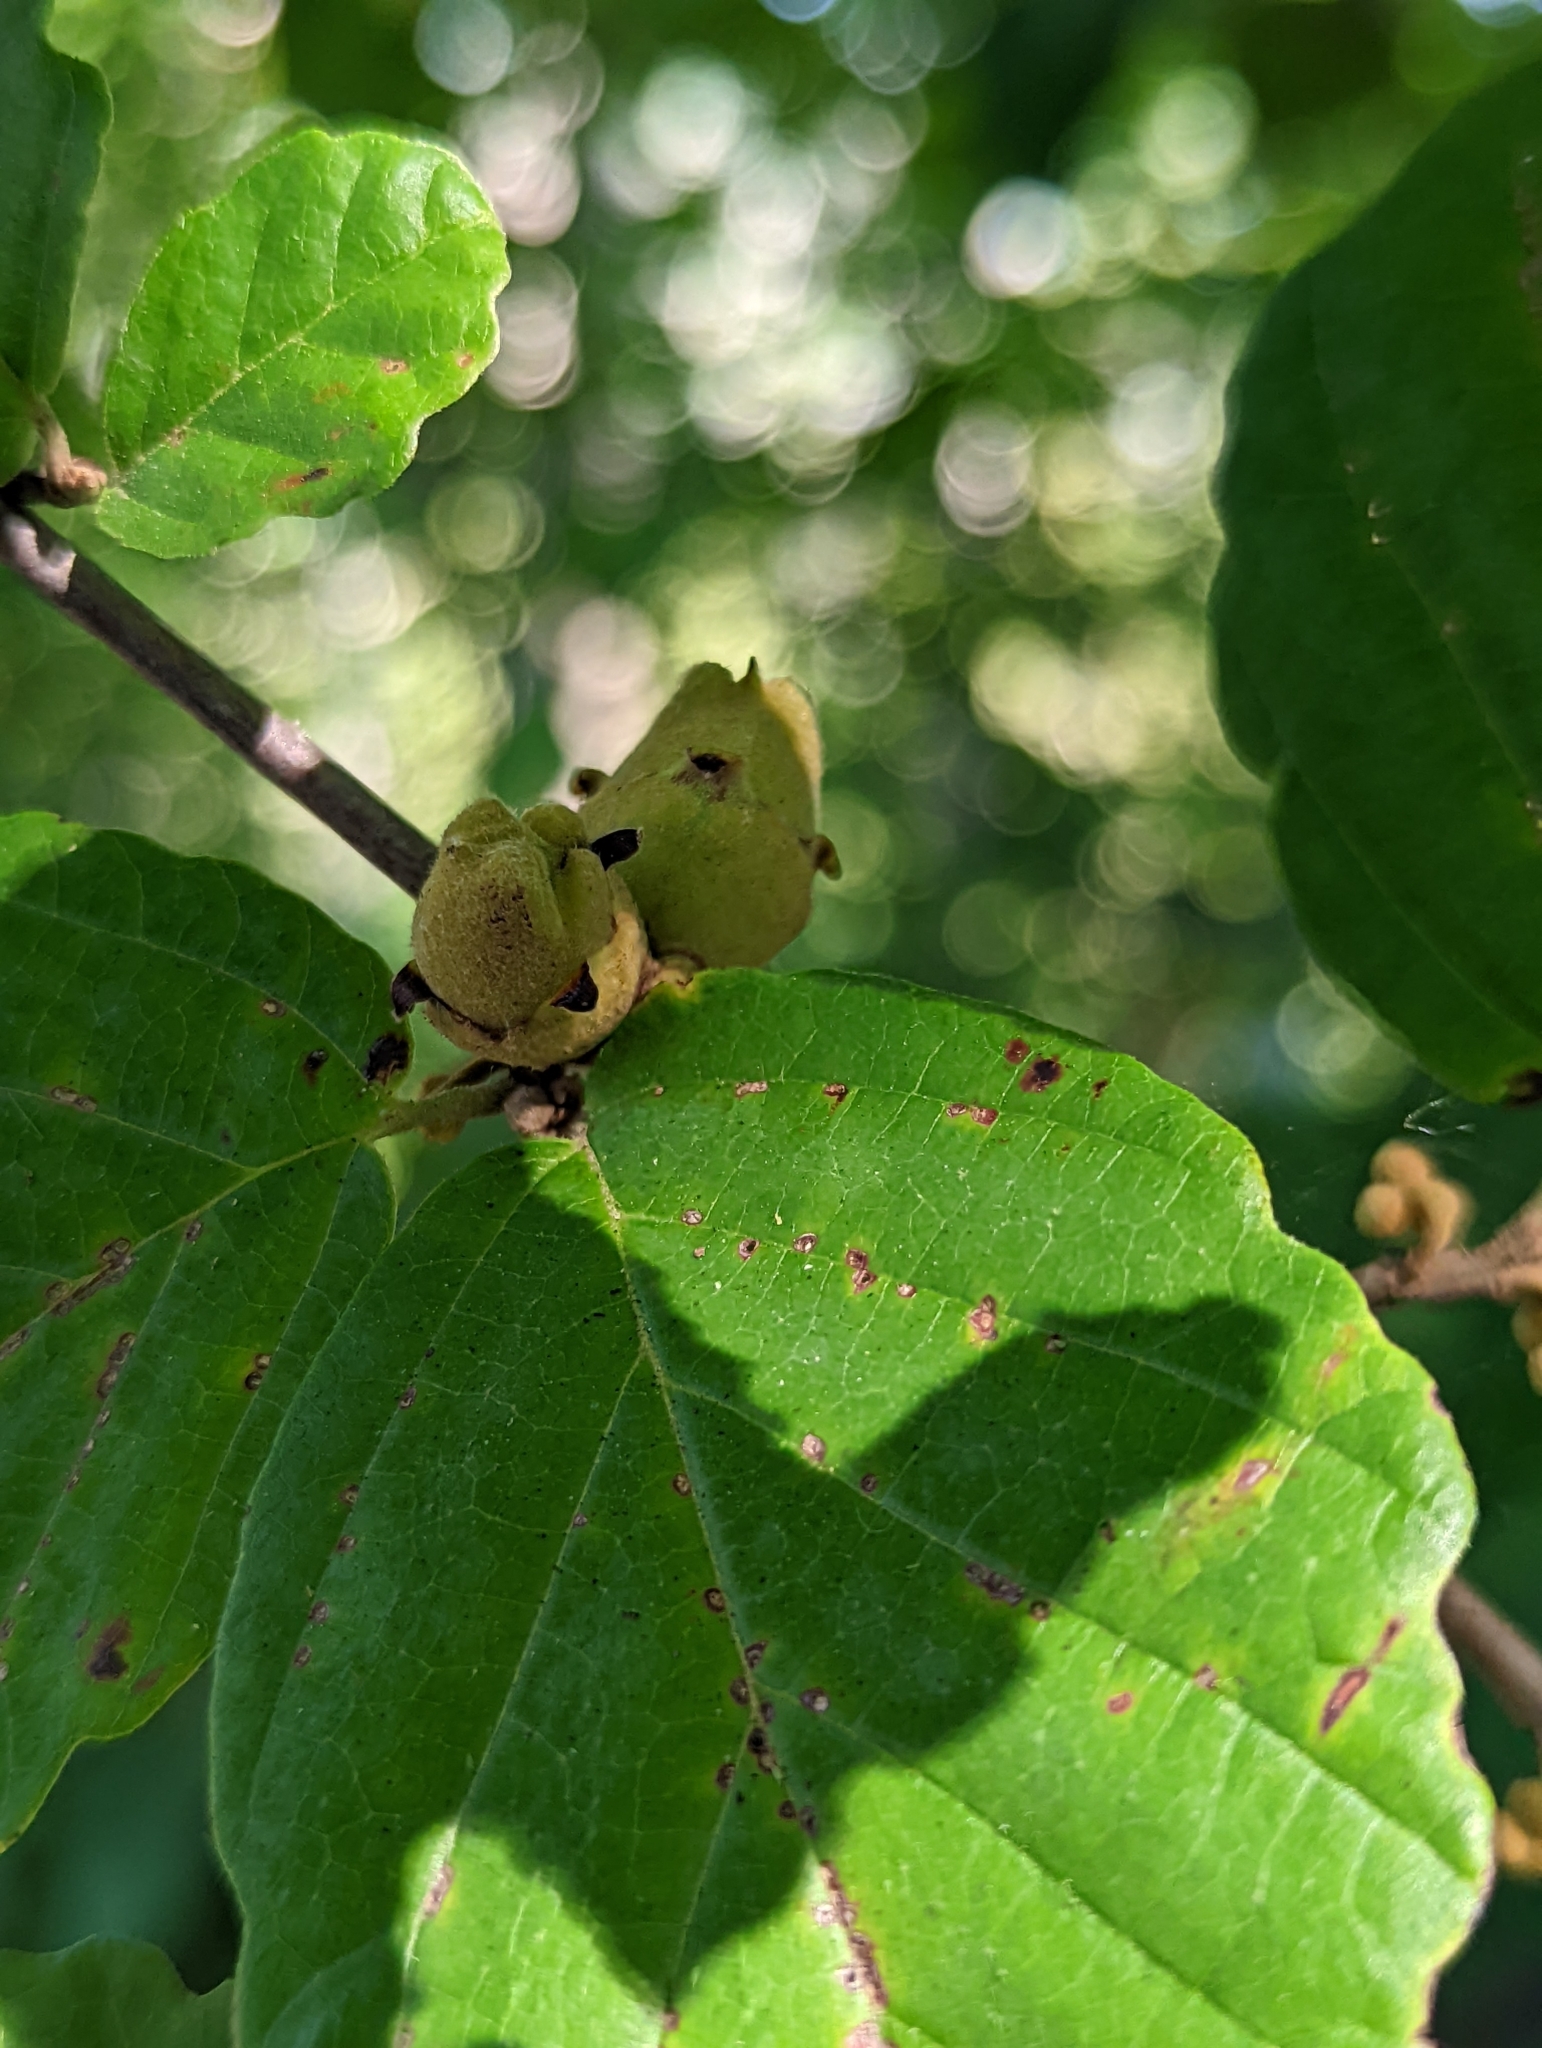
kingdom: Plantae
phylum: Tracheophyta
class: Magnoliopsida
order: Saxifragales
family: Hamamelidaceae
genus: Hamamelis
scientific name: Hamamelis virginiana
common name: Witch-hazel
